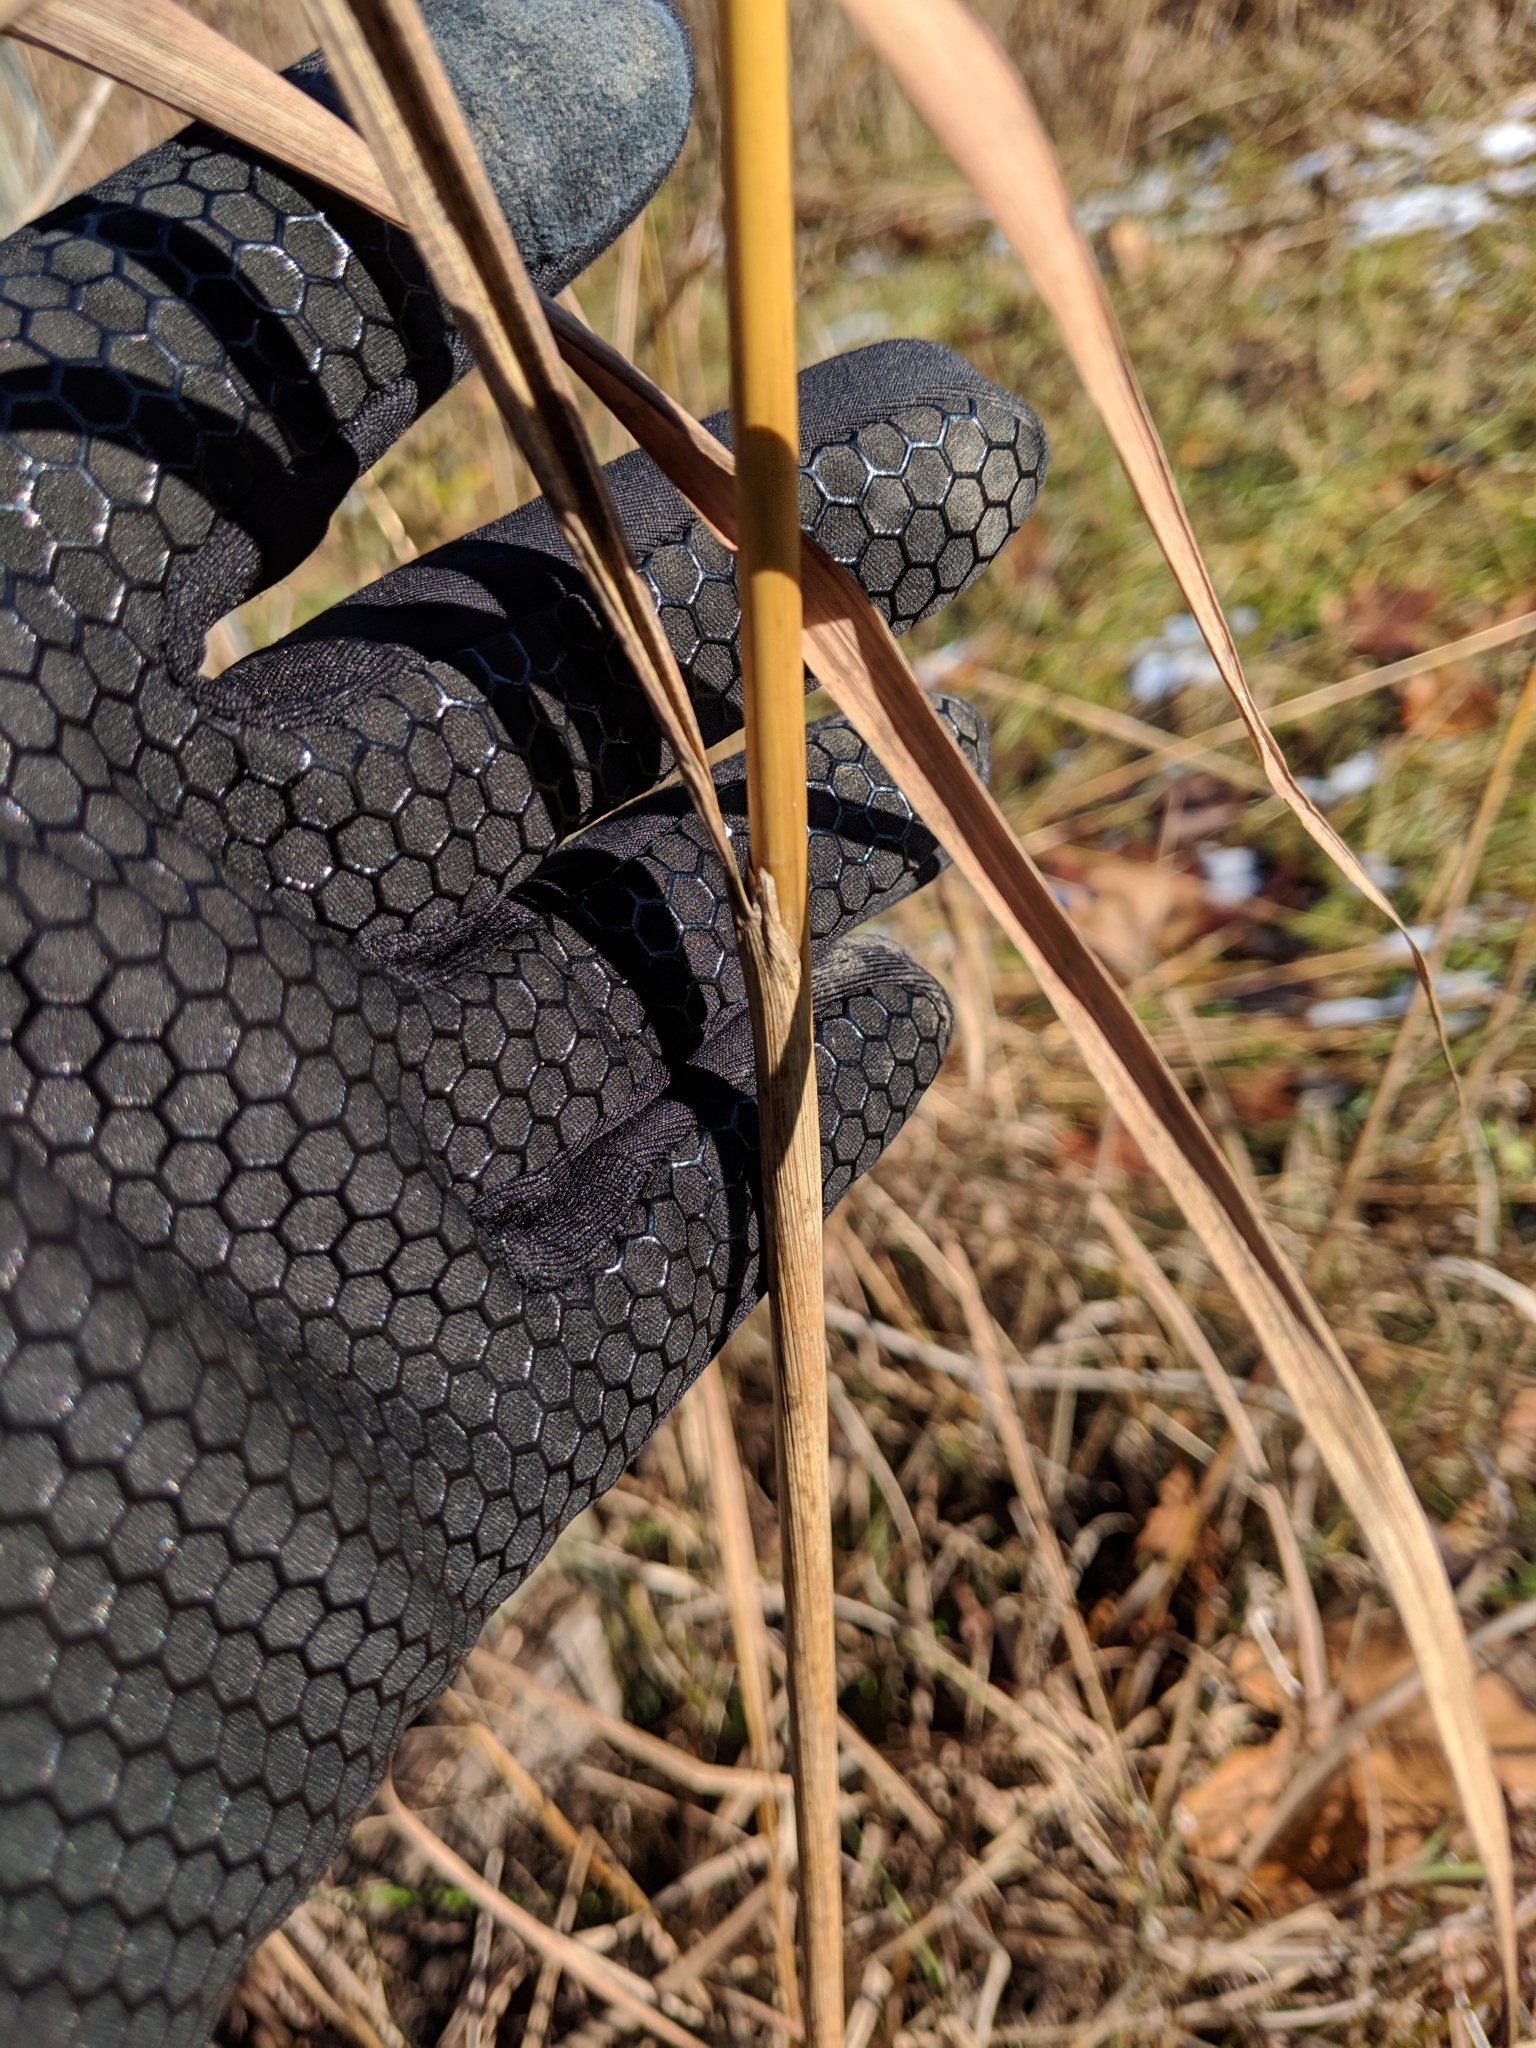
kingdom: Plantae
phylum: Tracheophyta
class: Liliopsida
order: Poales
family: Poaceae
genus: Sorghastrum
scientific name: Sorghastrum nutans
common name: Indian grass
